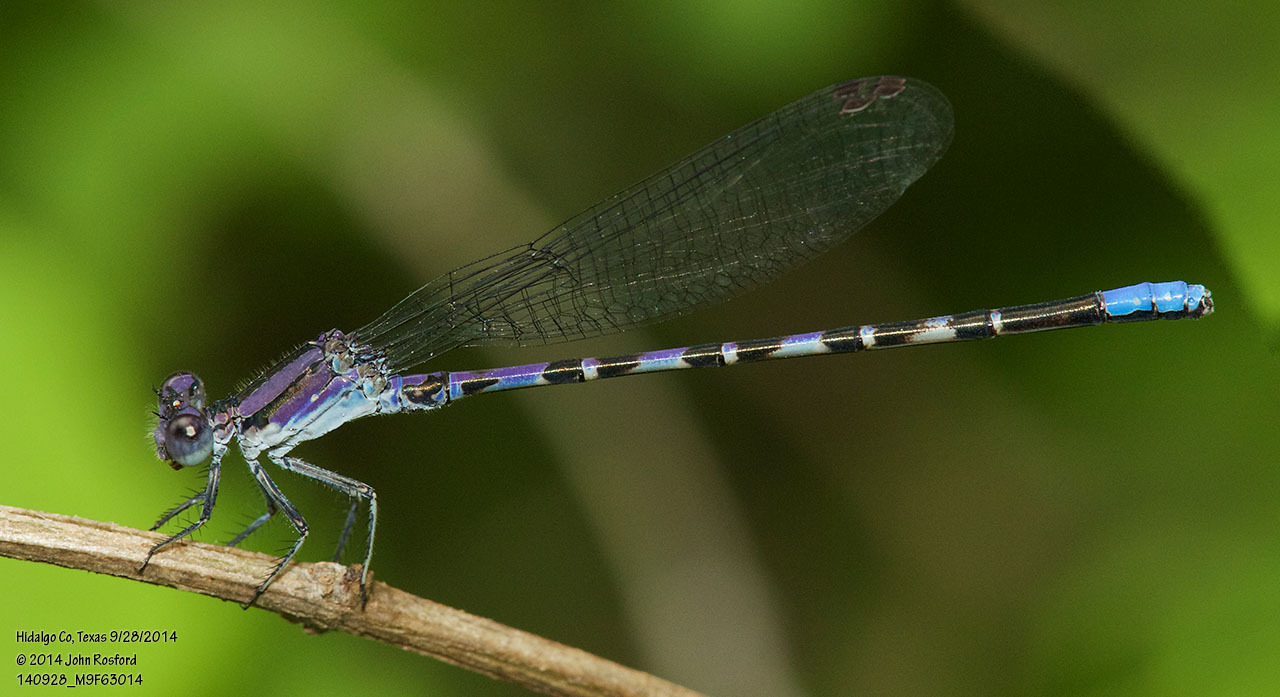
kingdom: Animalia
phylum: Arthropoda
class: Insecta
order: Odonata
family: Coenagrionidae
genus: Argia
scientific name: Argia immunda
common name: Kiowa dancer
